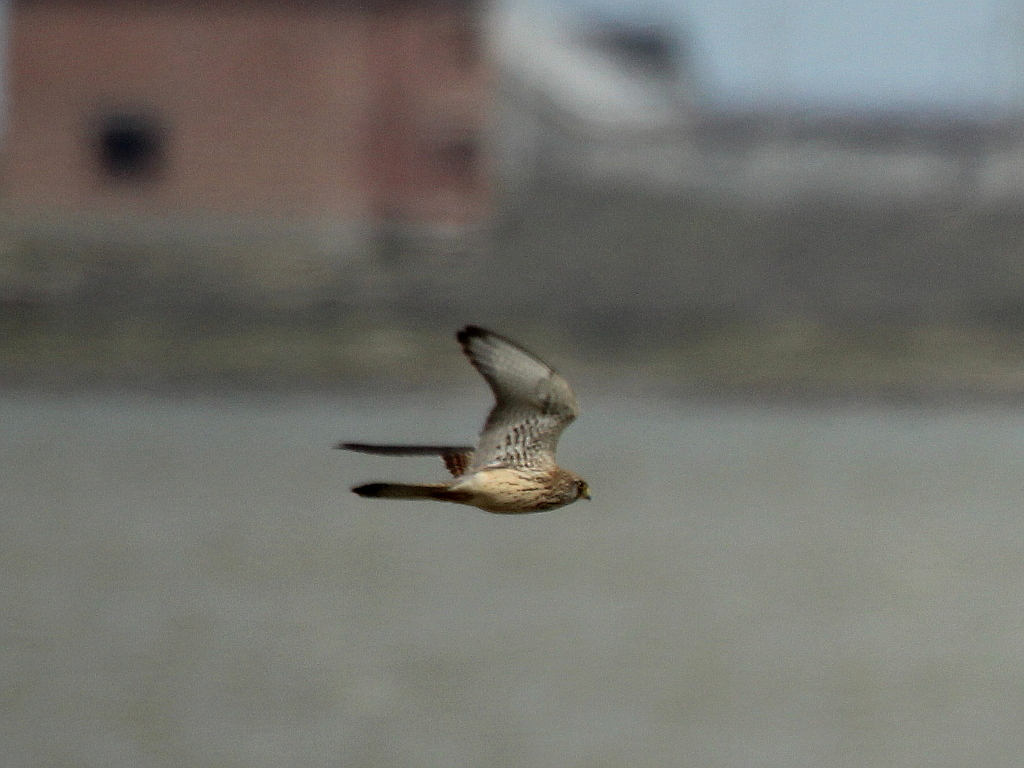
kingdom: Animalia
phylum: Chordata
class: Aves
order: Falconiformes
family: Falconidae
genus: Falco
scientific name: Falco tinnunculus
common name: Common kestrel
